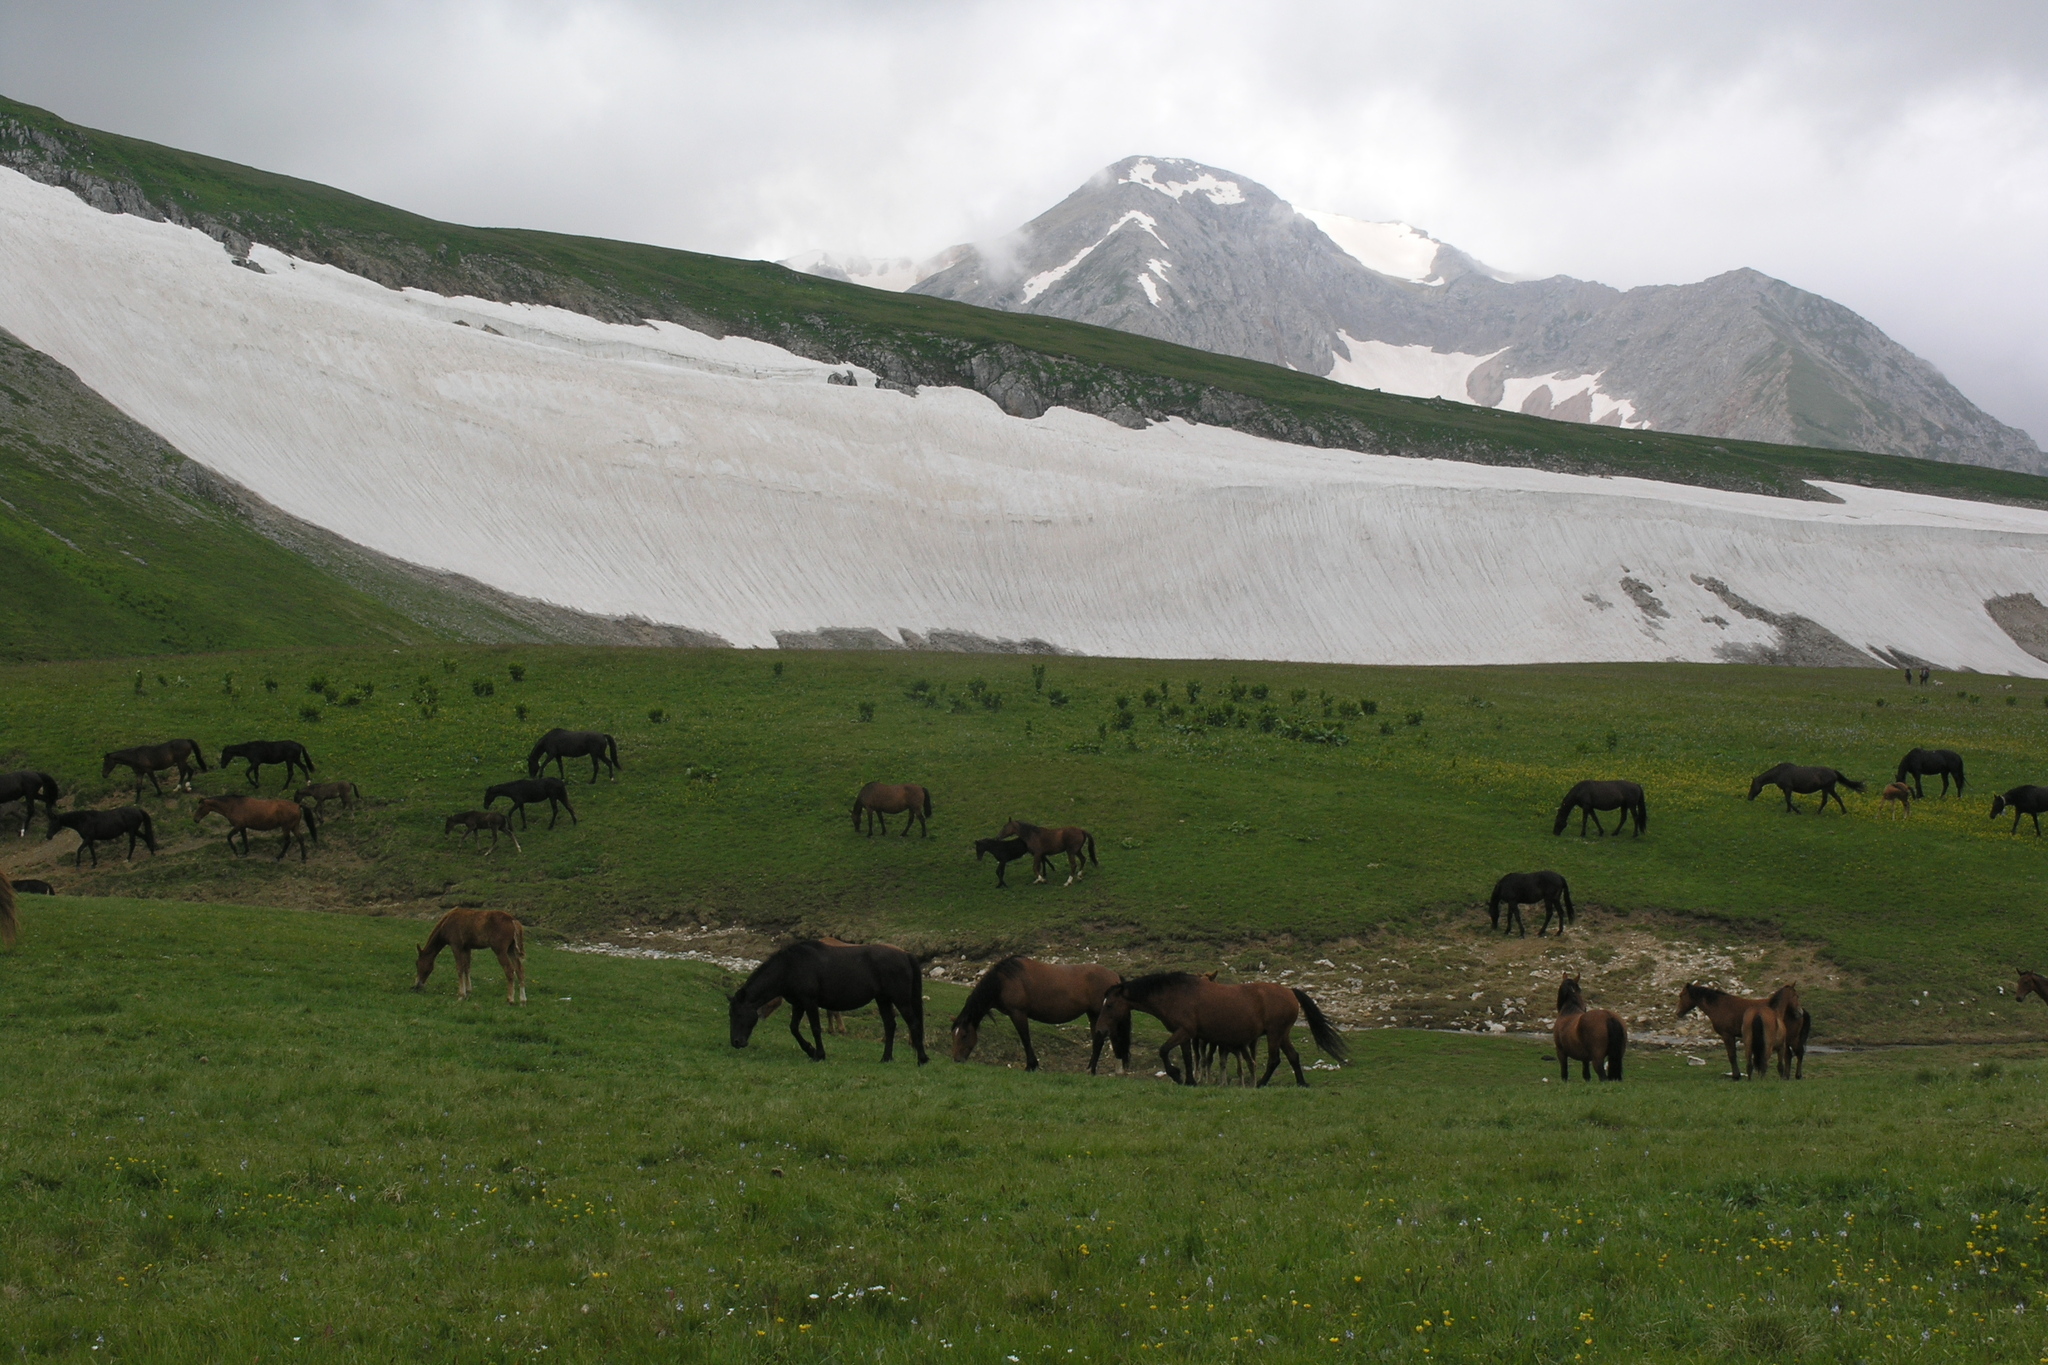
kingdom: Plantae
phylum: Tracheophyta
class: Liliopsida
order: Liliales
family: Melanthiaceae
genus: Veratrum
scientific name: Veratrum lobelianum
